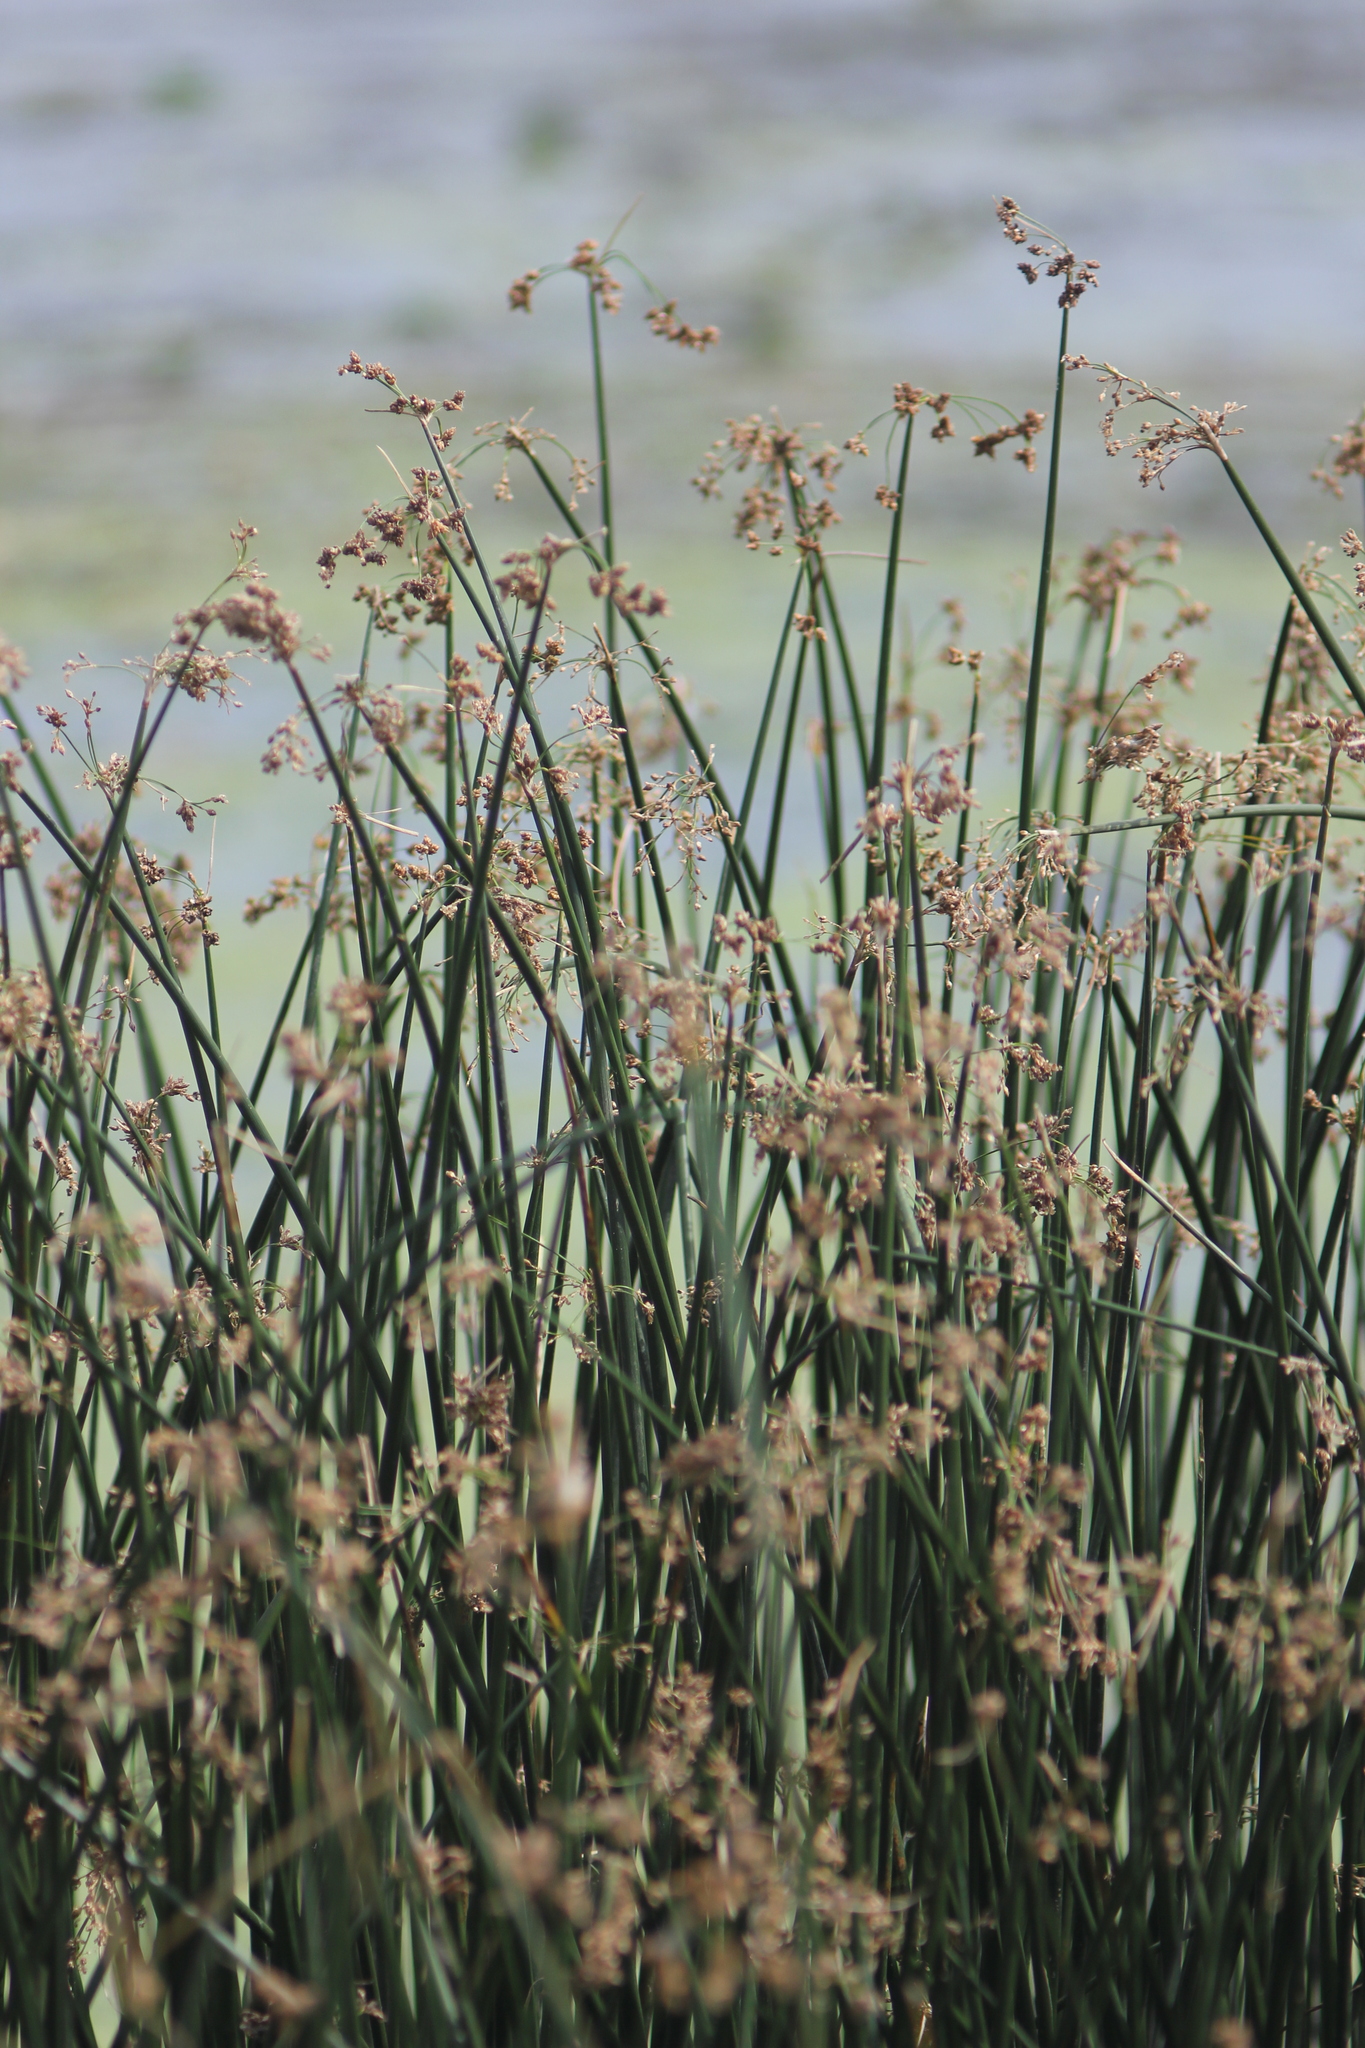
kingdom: Plantae
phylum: Tracheophyta
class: Liliopsida
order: Poales
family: Cyperaceae
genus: Schoenoplectus
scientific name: Schoenoplectus lacustris
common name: Common club-rush
